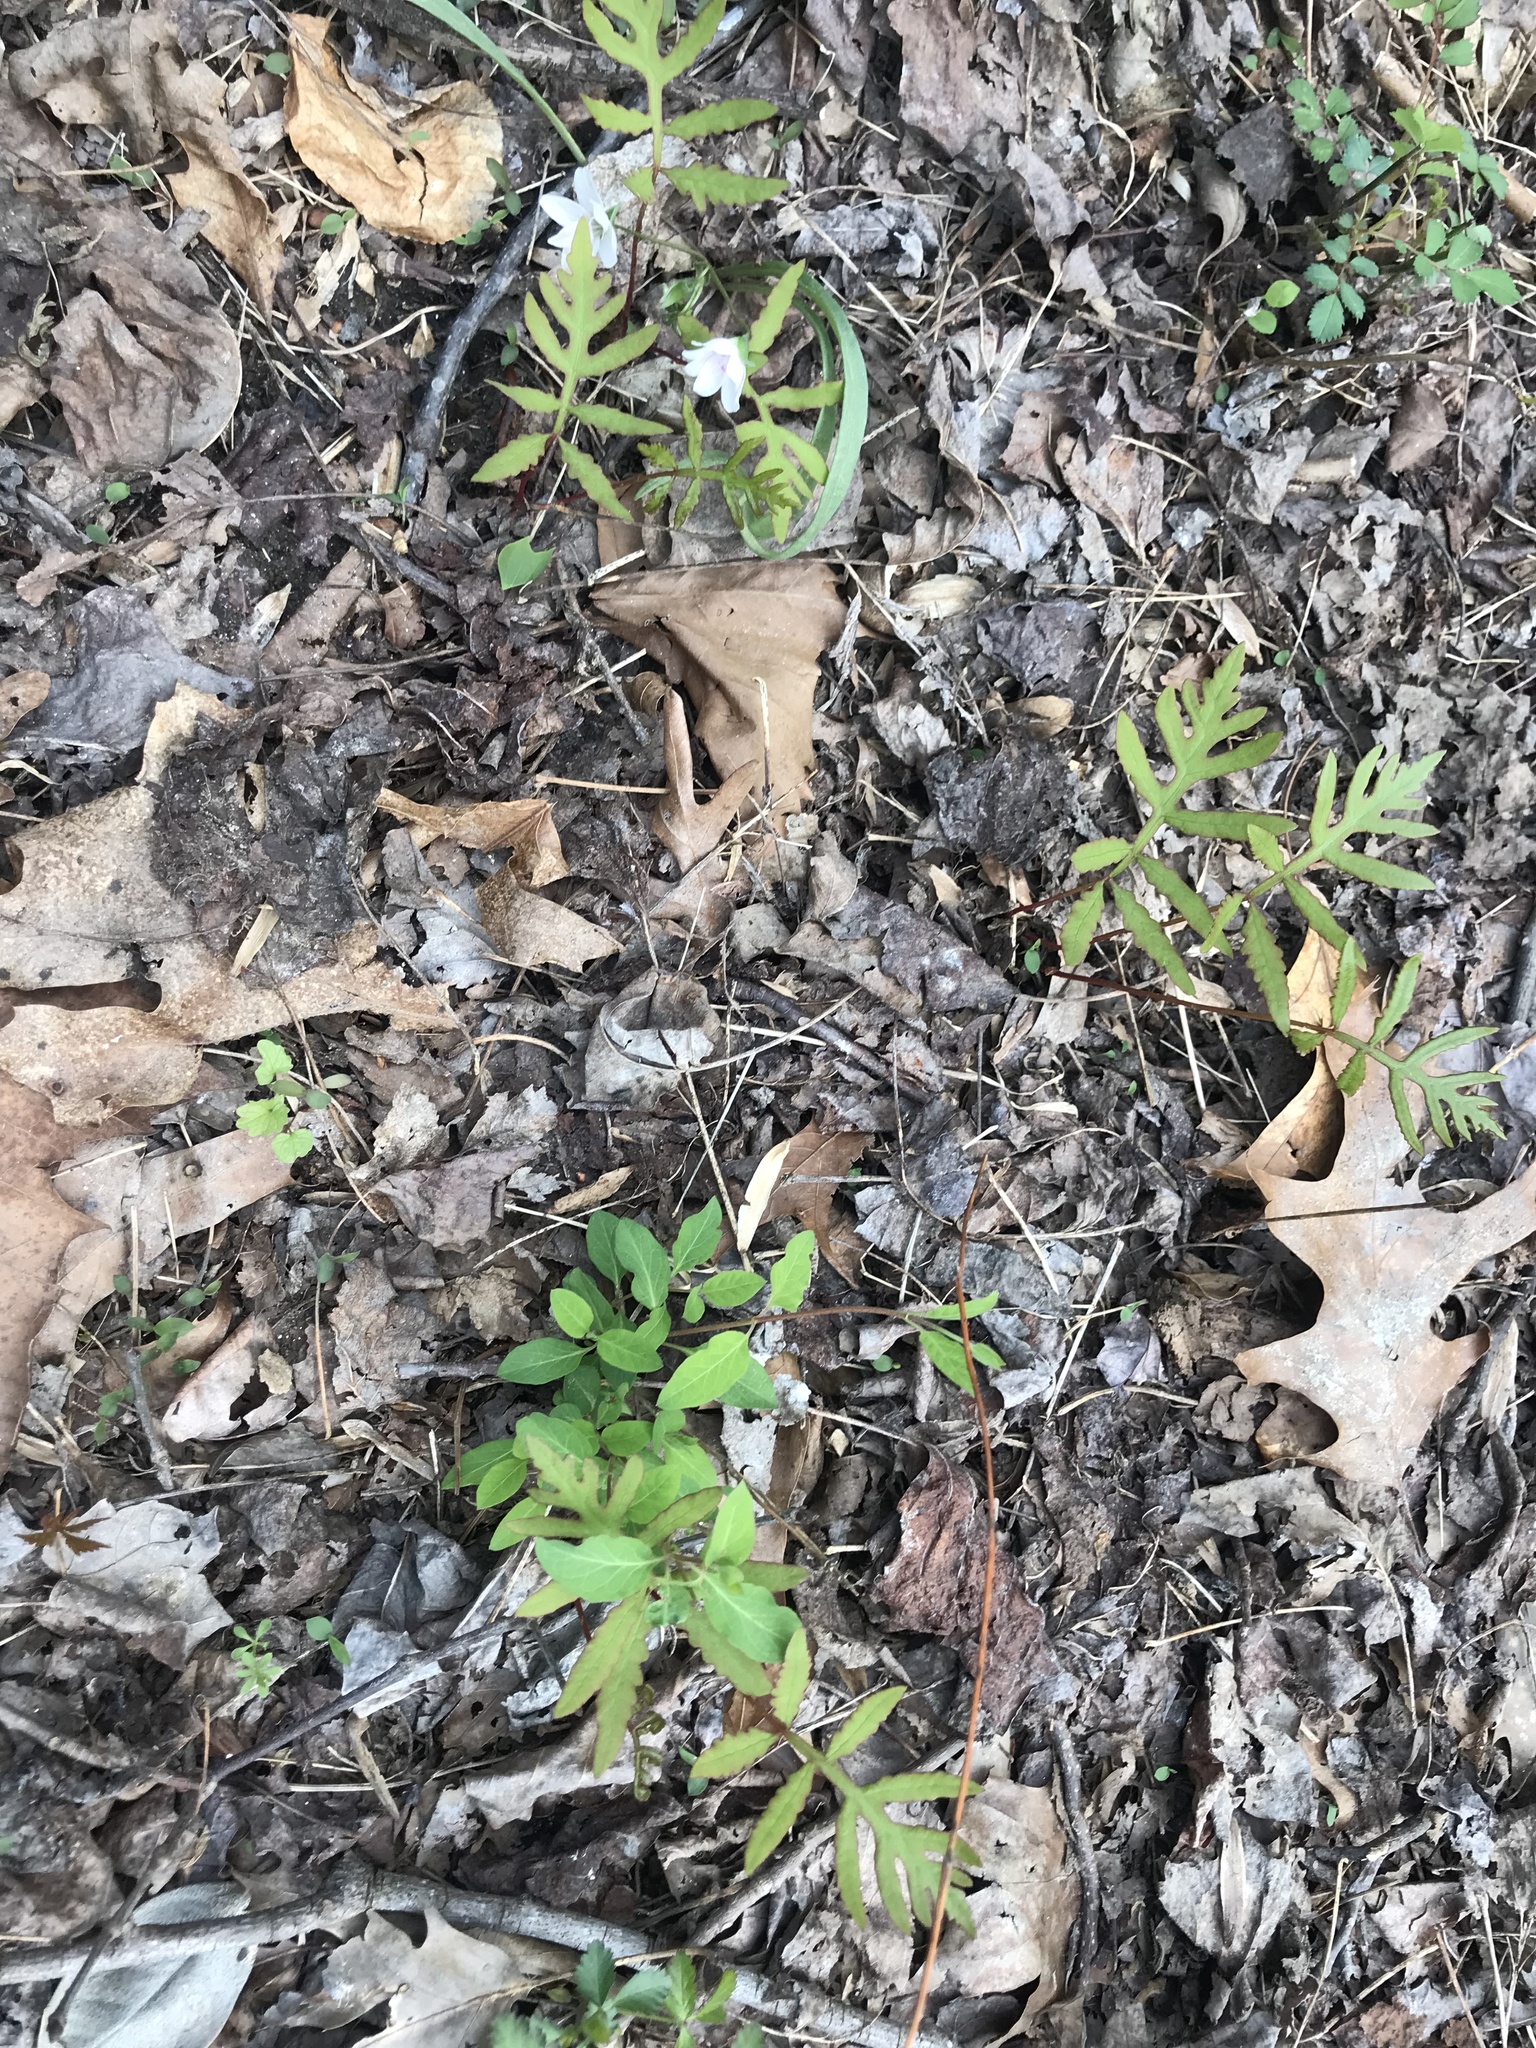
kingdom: Plantae
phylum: Tracheophyta
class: Polypodiopsida
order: Polypodiales
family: Onocleaceae
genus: Onoclea
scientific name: Onoclea sensibilis
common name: Sensitive fern
